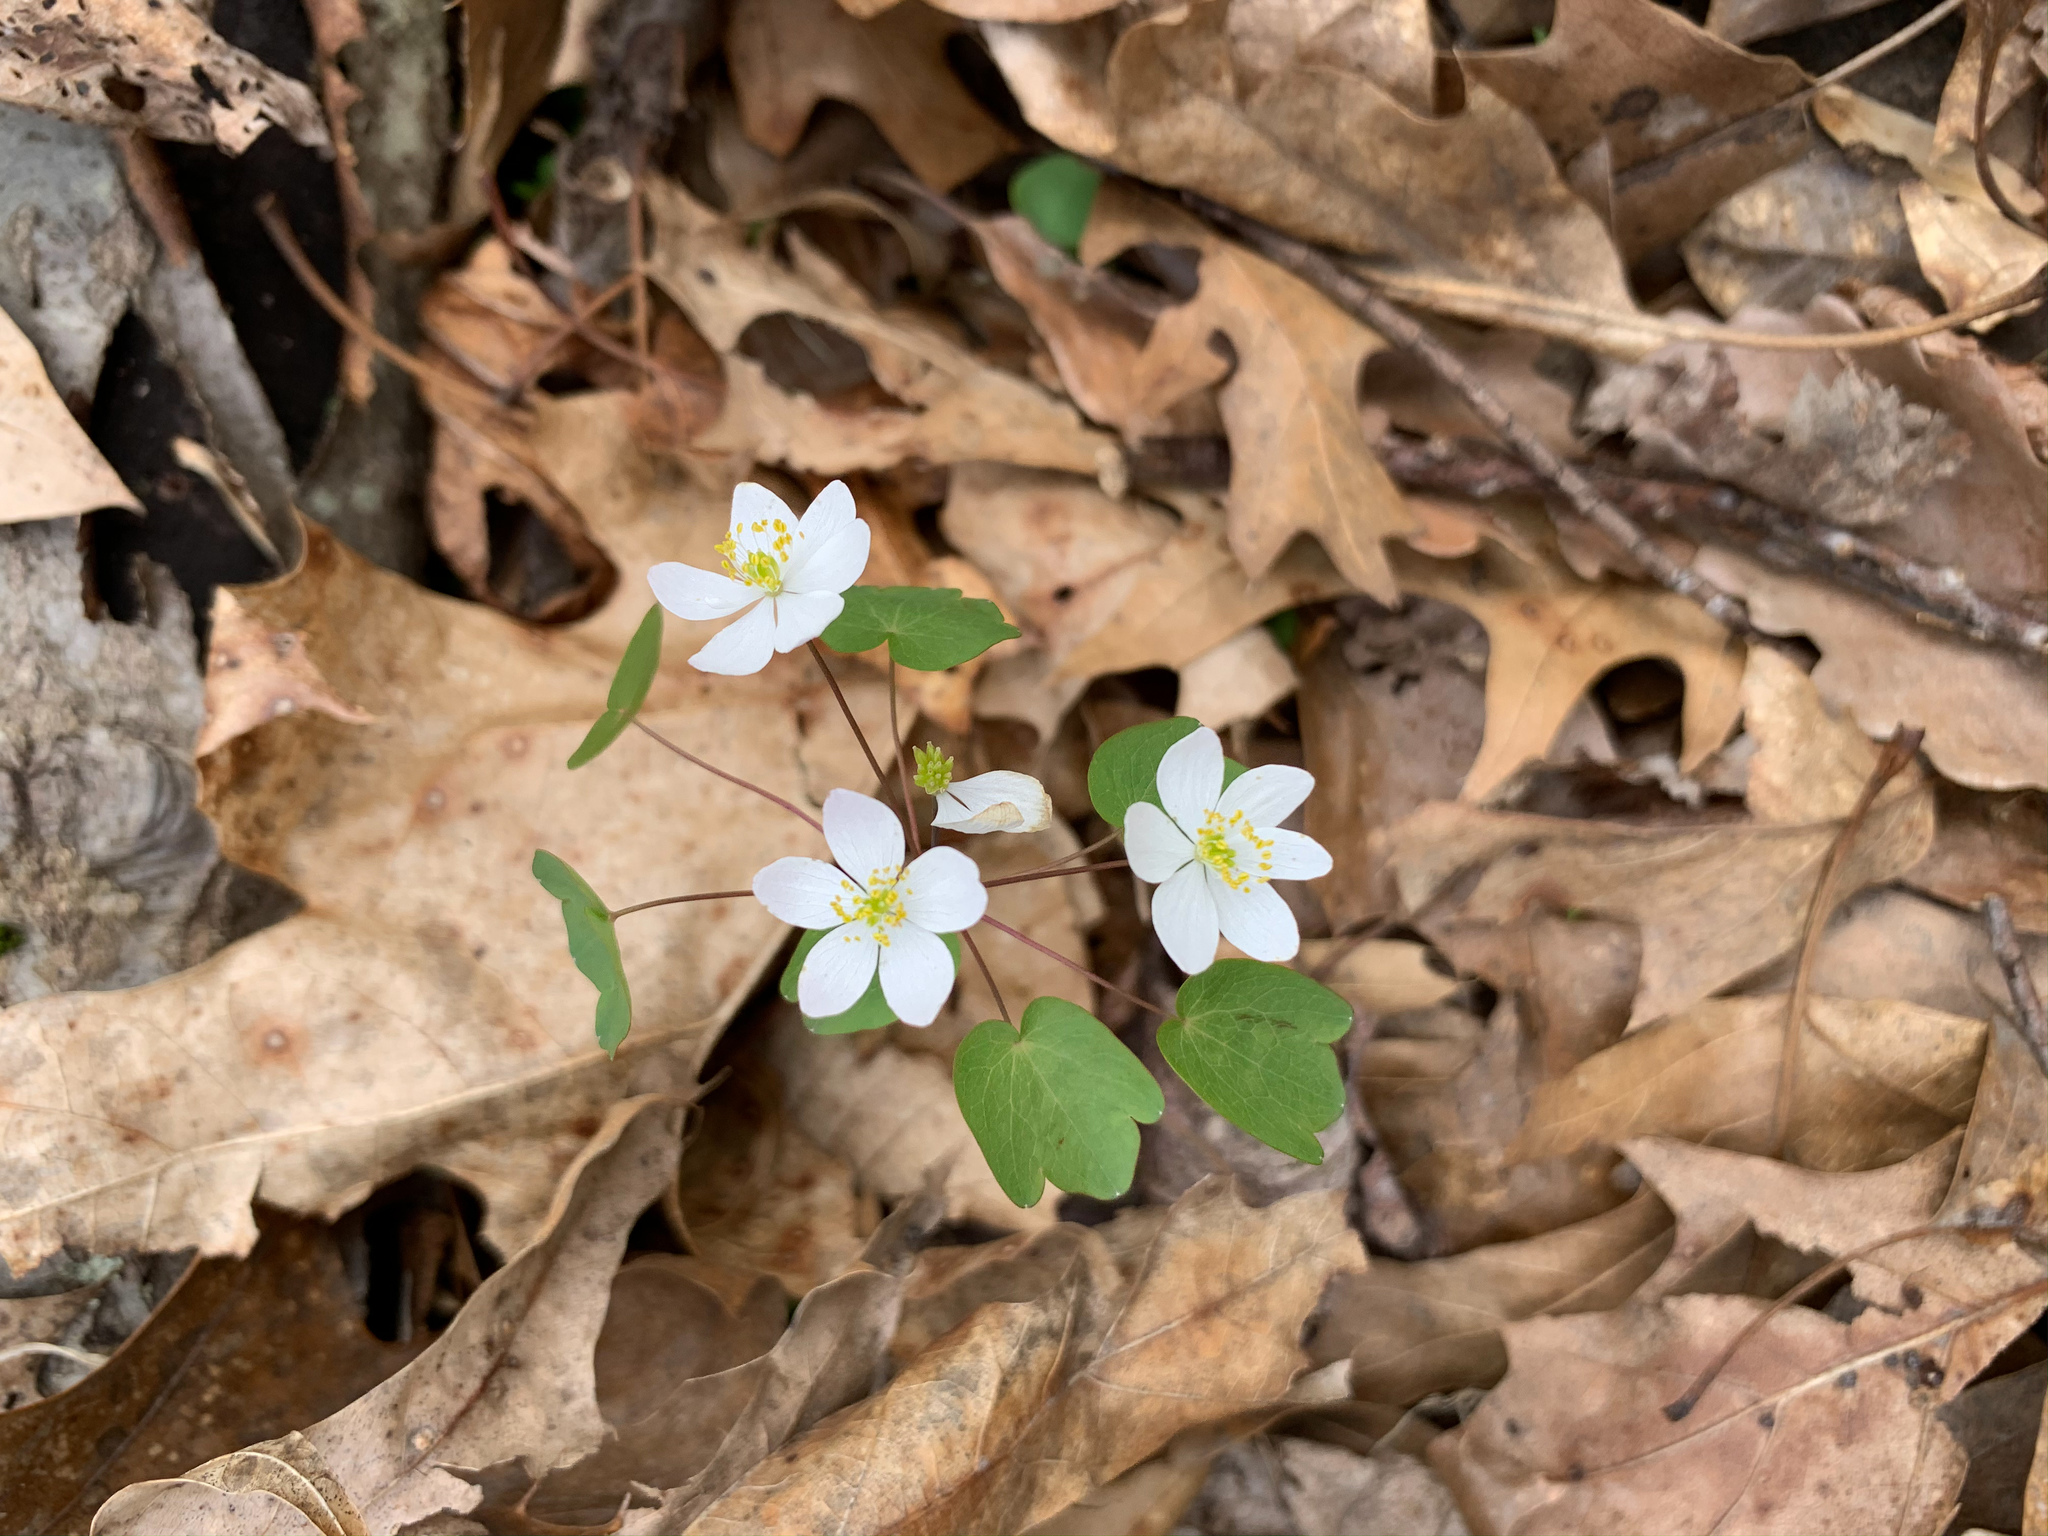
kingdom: Plantae
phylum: Tracheophyta
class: Magnoliopsida
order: Ranunculales
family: Ranunculaceae
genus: Thalictrum
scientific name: Thalictrum thalictroides
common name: Rue-anemone
